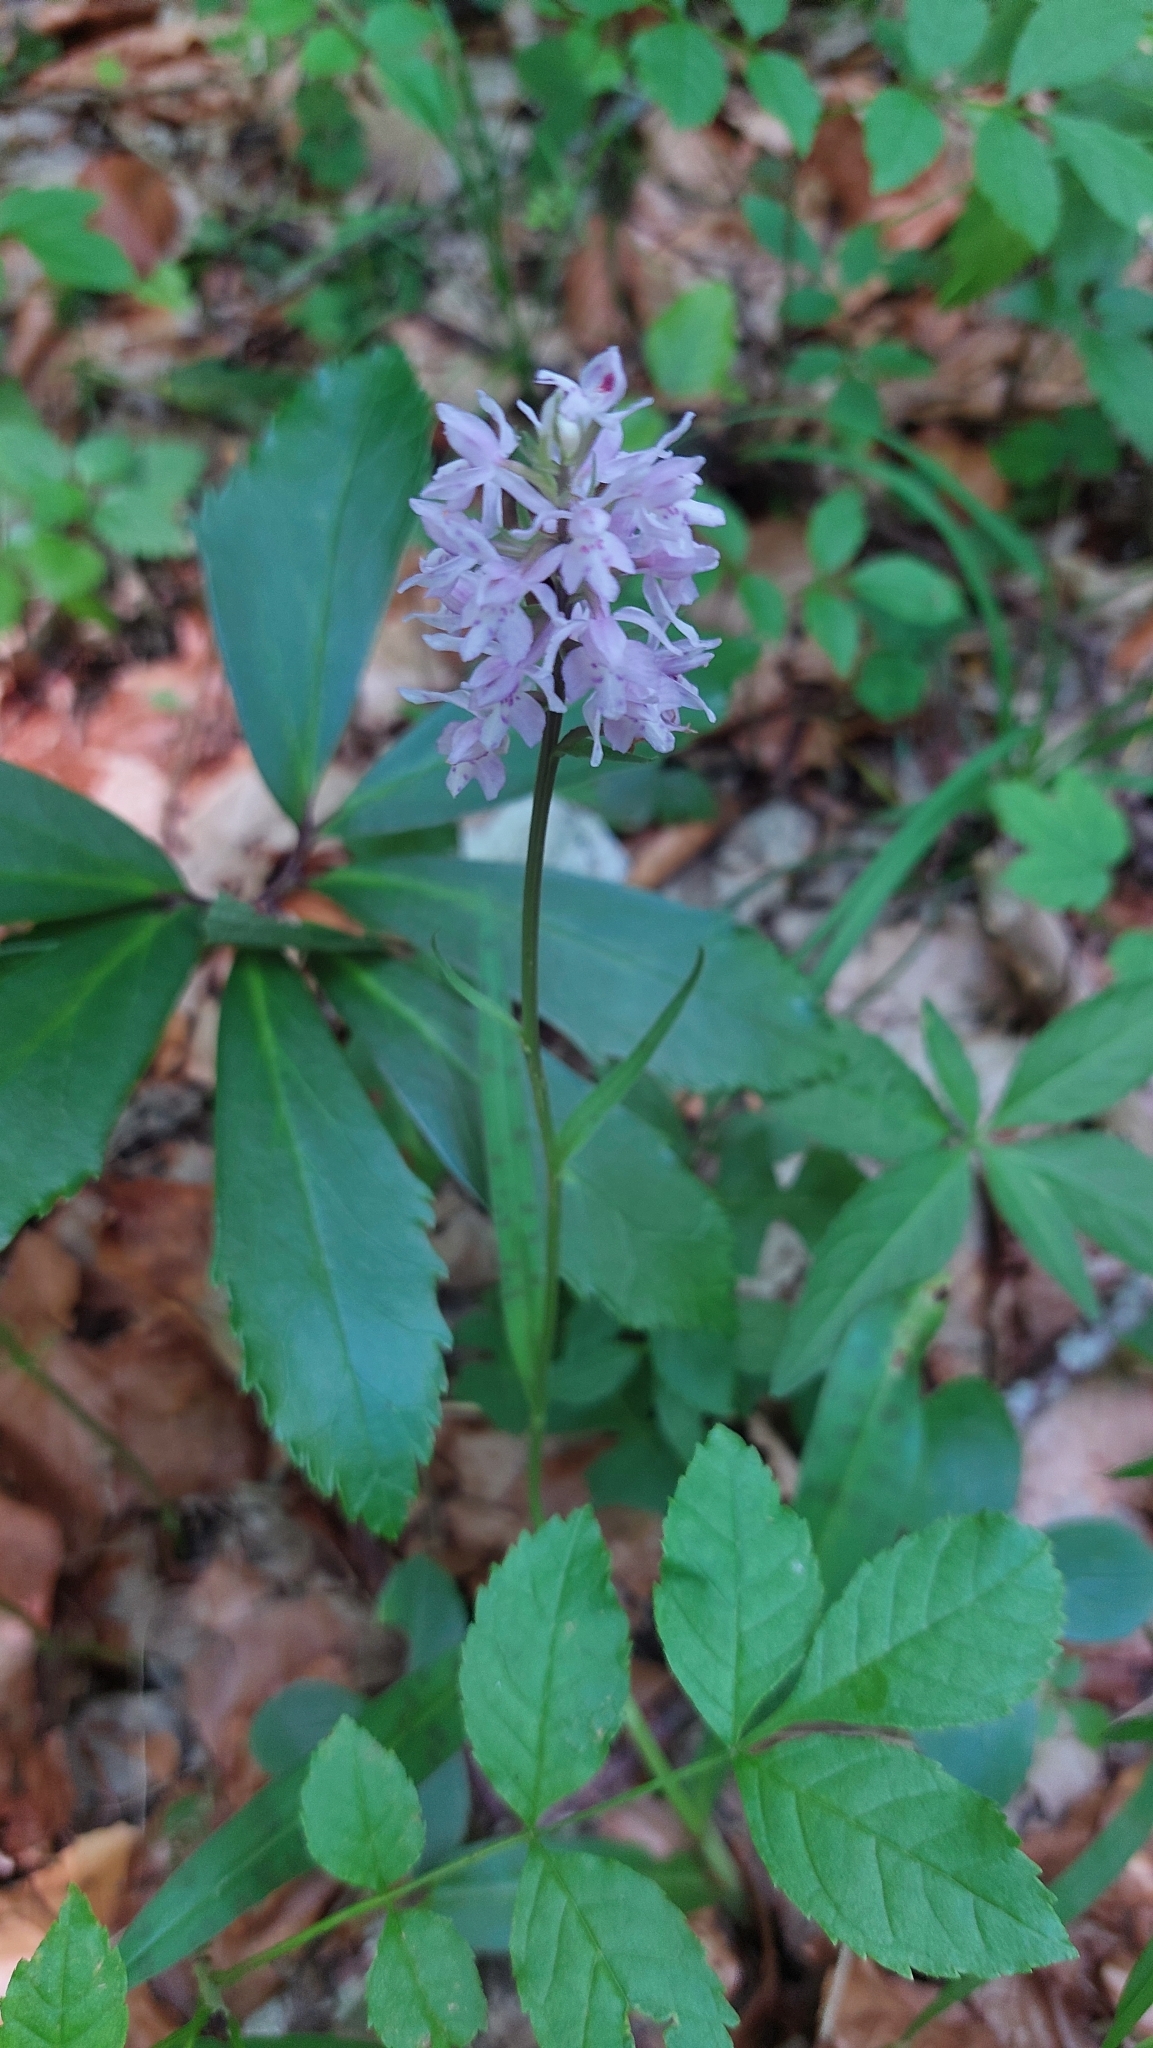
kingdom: Plantae
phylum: Tracheophyta
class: Liliopsida
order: Asparagales
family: Orchidaceae
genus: Dactylorhiza
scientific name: Dactylorhiza maculata
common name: Heath spotted-orchid
